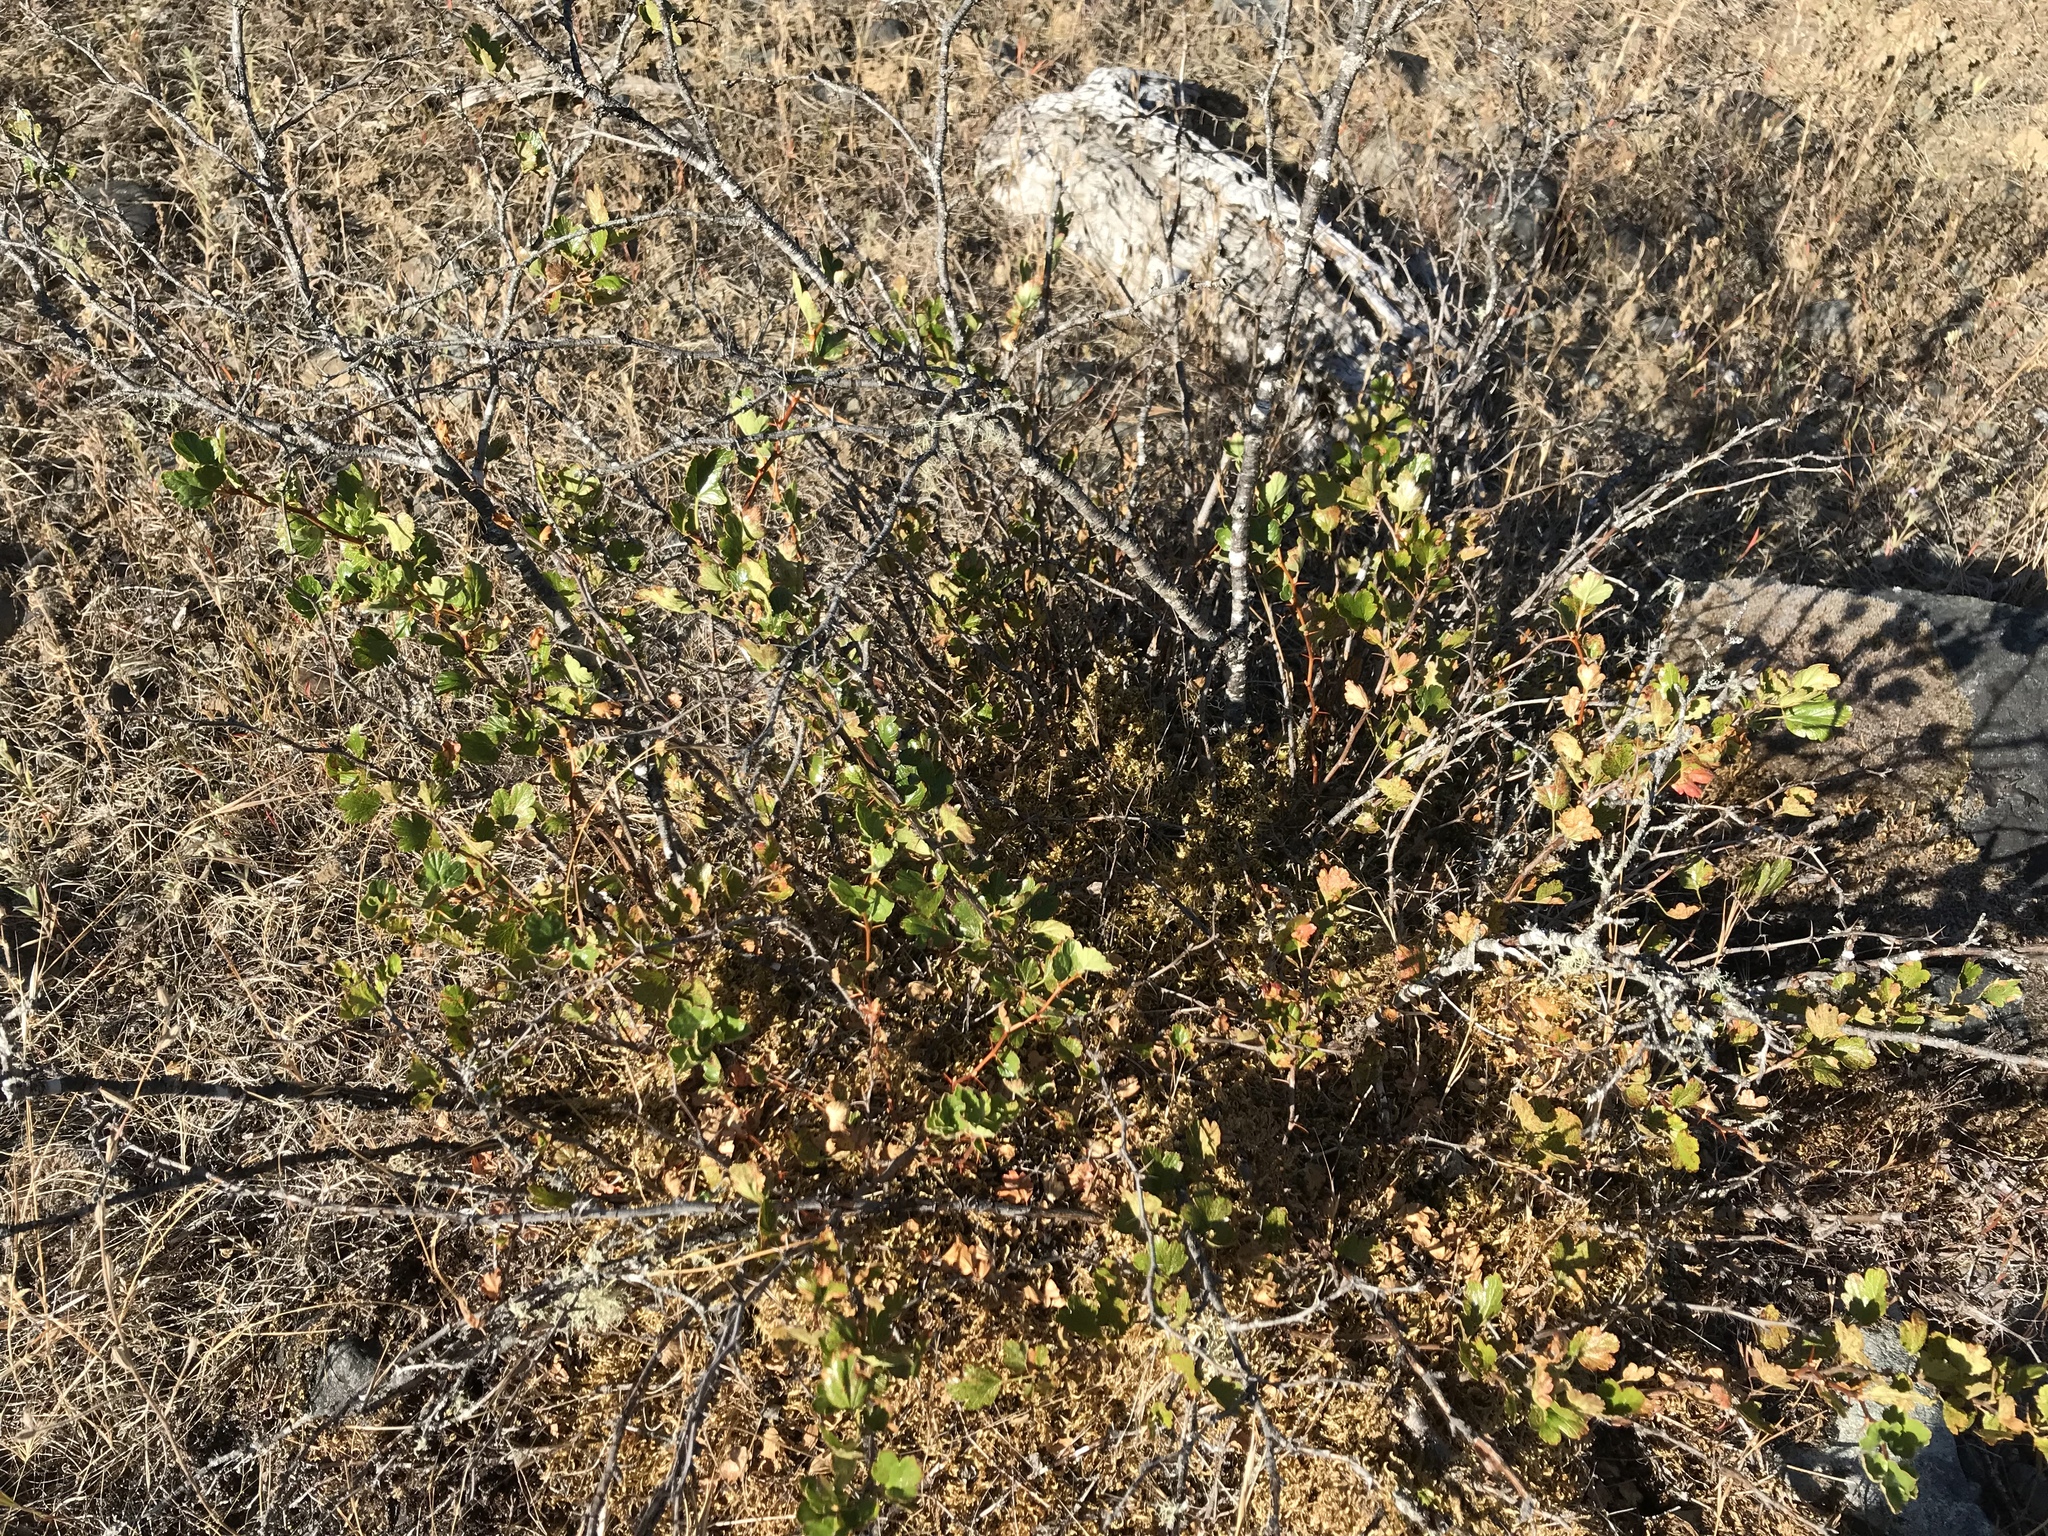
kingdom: Plantae
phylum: Tracheophyta
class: Magnoliopsida
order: Saxifragales
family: Grossulariaceae
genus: Ribes
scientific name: Ribes roezlii
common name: Sierra gooseberry
